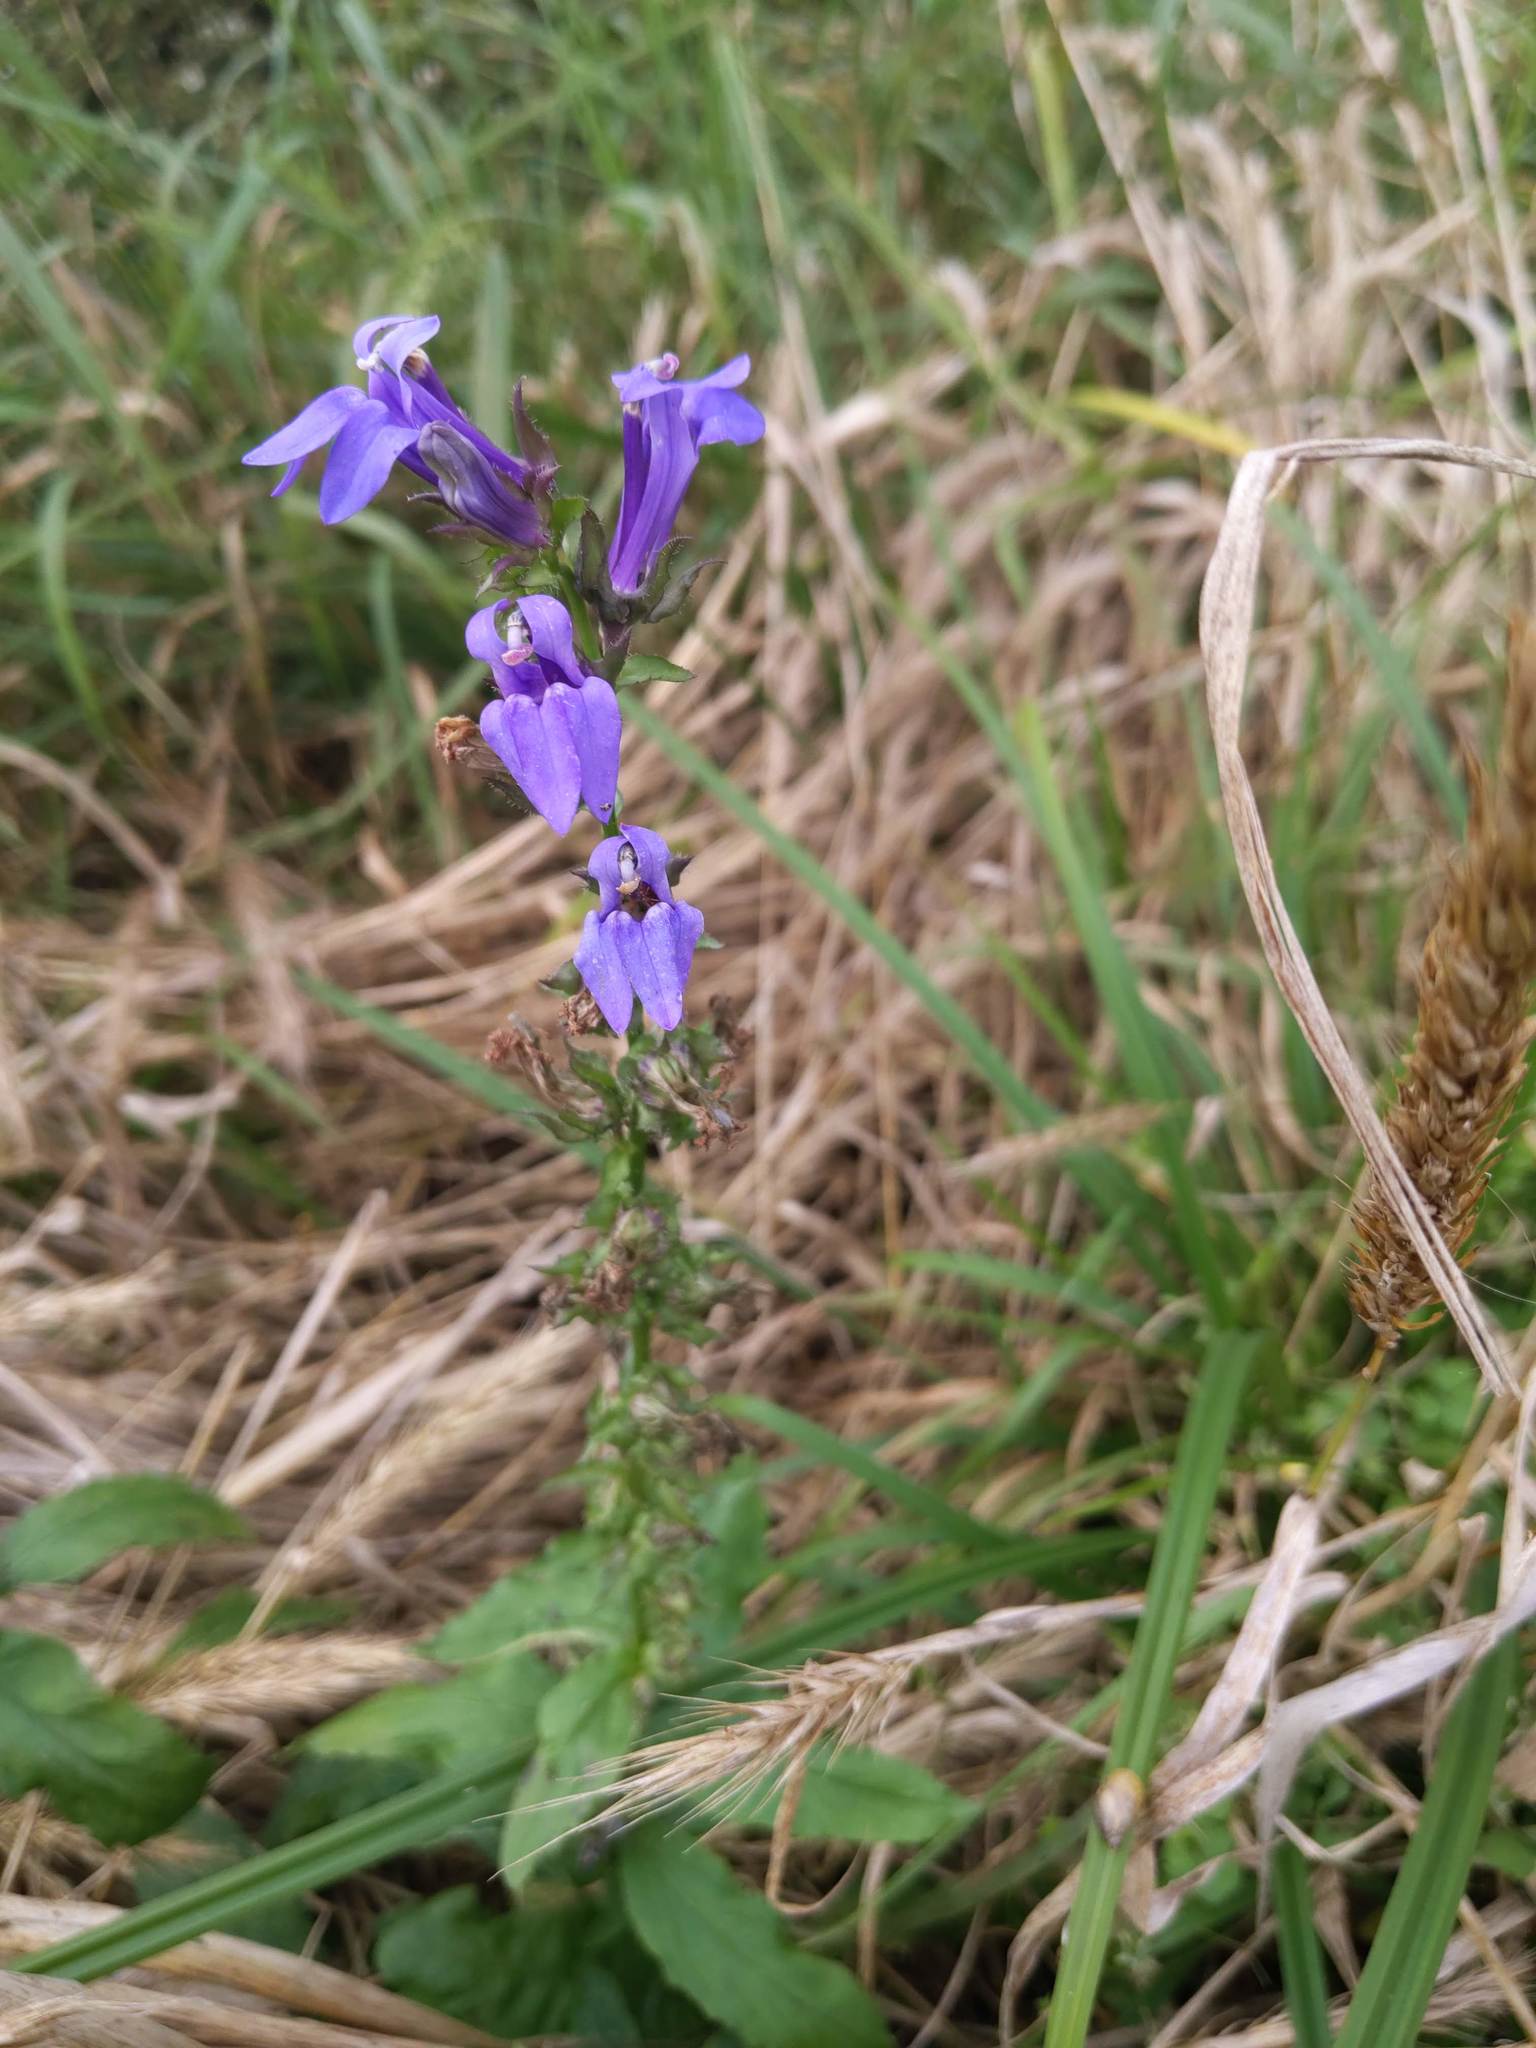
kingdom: Plantae
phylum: Tracheophyta
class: Magnoliopsida
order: Asterales
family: Campanulaceae
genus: Lobelia
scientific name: Lobelia siphilitica
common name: Great lobelia
